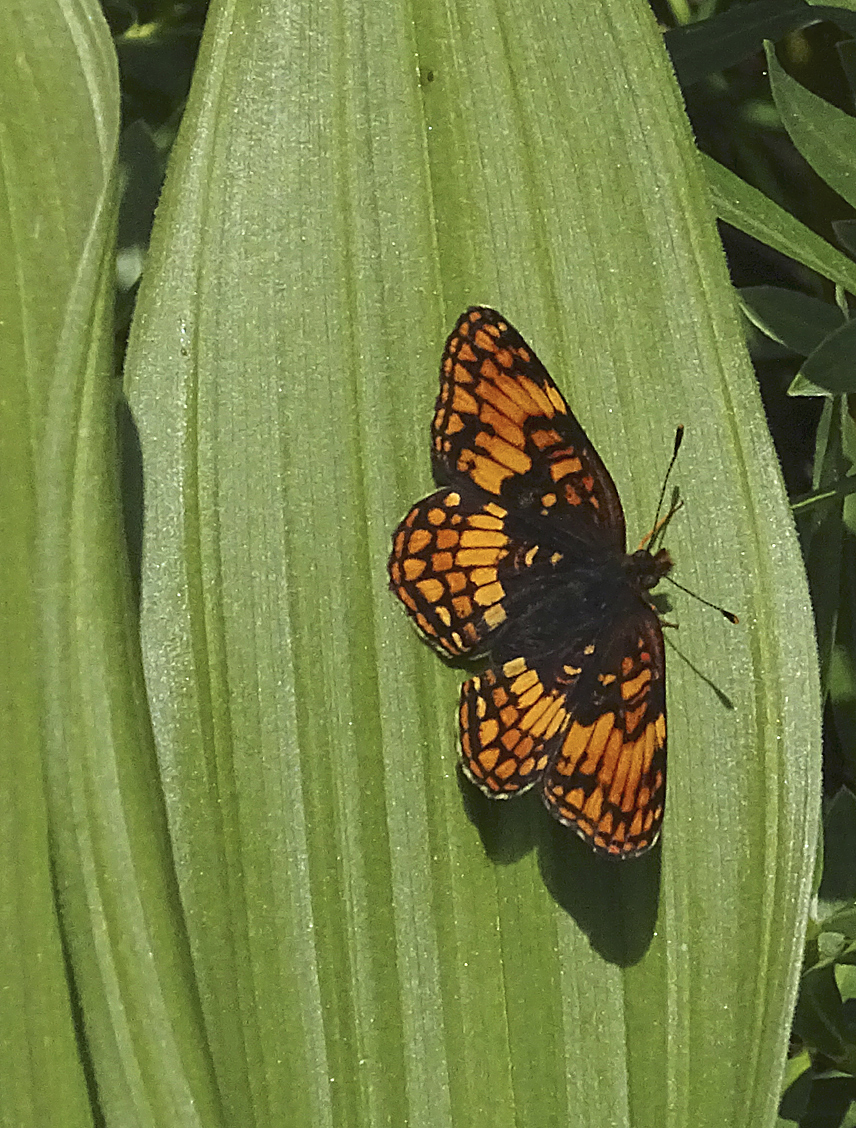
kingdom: Animalia
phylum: Arthropoda
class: Insecta
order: Lepidoptera
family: Nymphalidae
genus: Chlosyne
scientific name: Chlosyne hoffmanni
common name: Hoffmann's checkerspot
